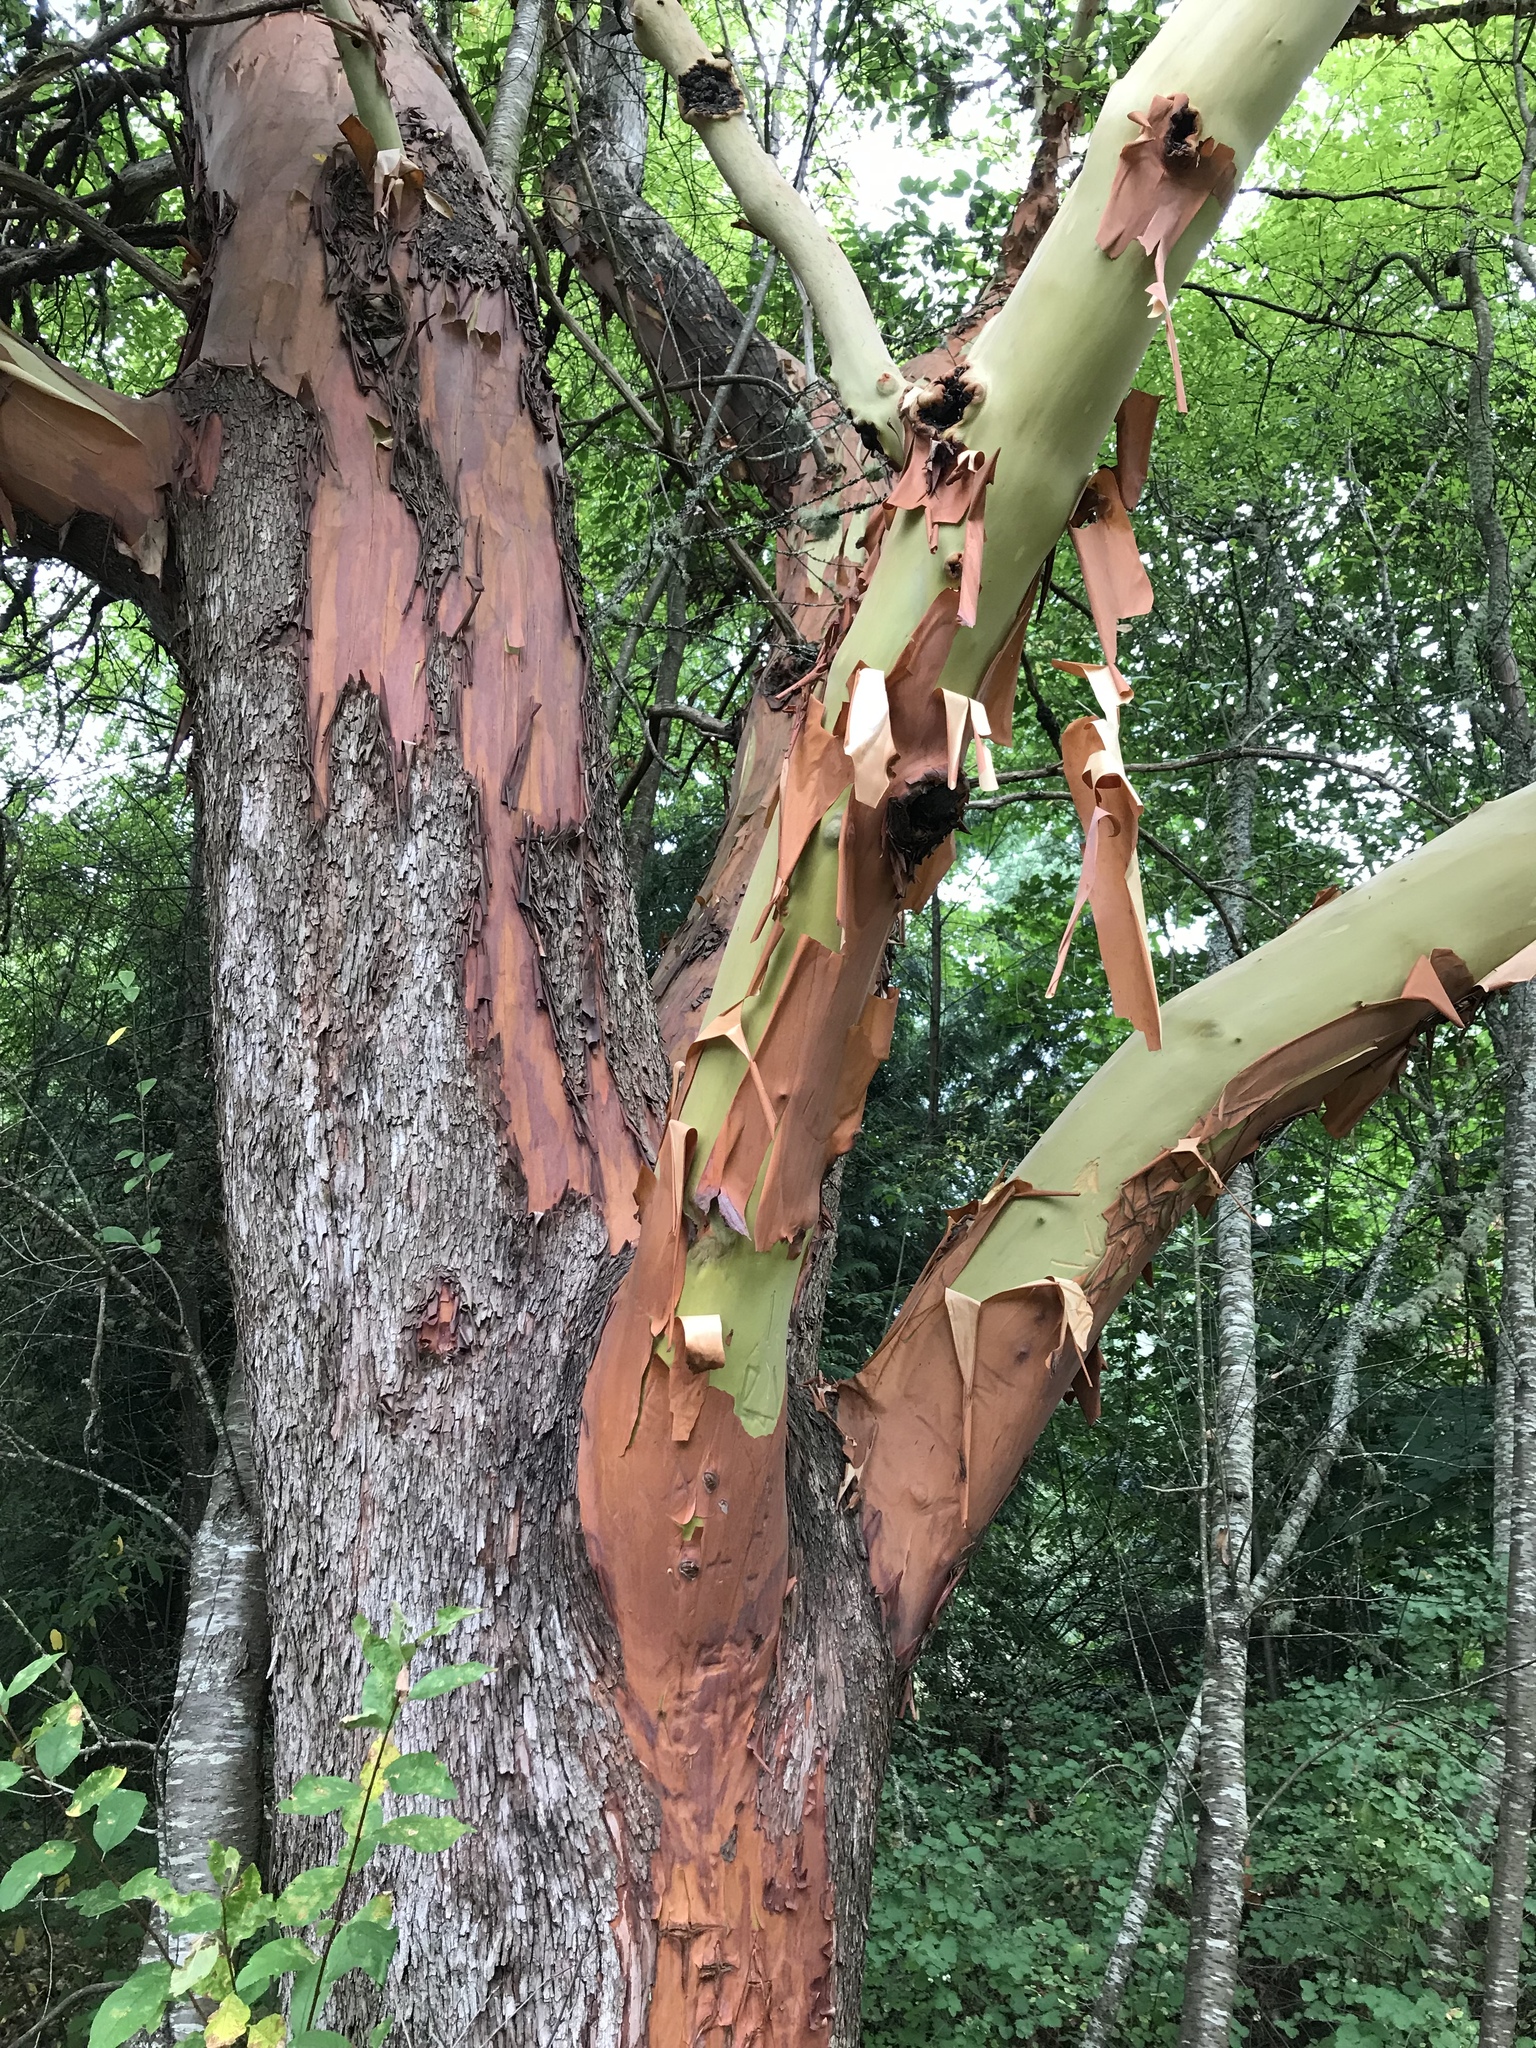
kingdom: Plantae
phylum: Tracheophyta
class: Magnoliopsida
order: Ericales
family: Ericaceae
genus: Arbutus
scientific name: Arbutus menziesii
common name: Pacific madrone
